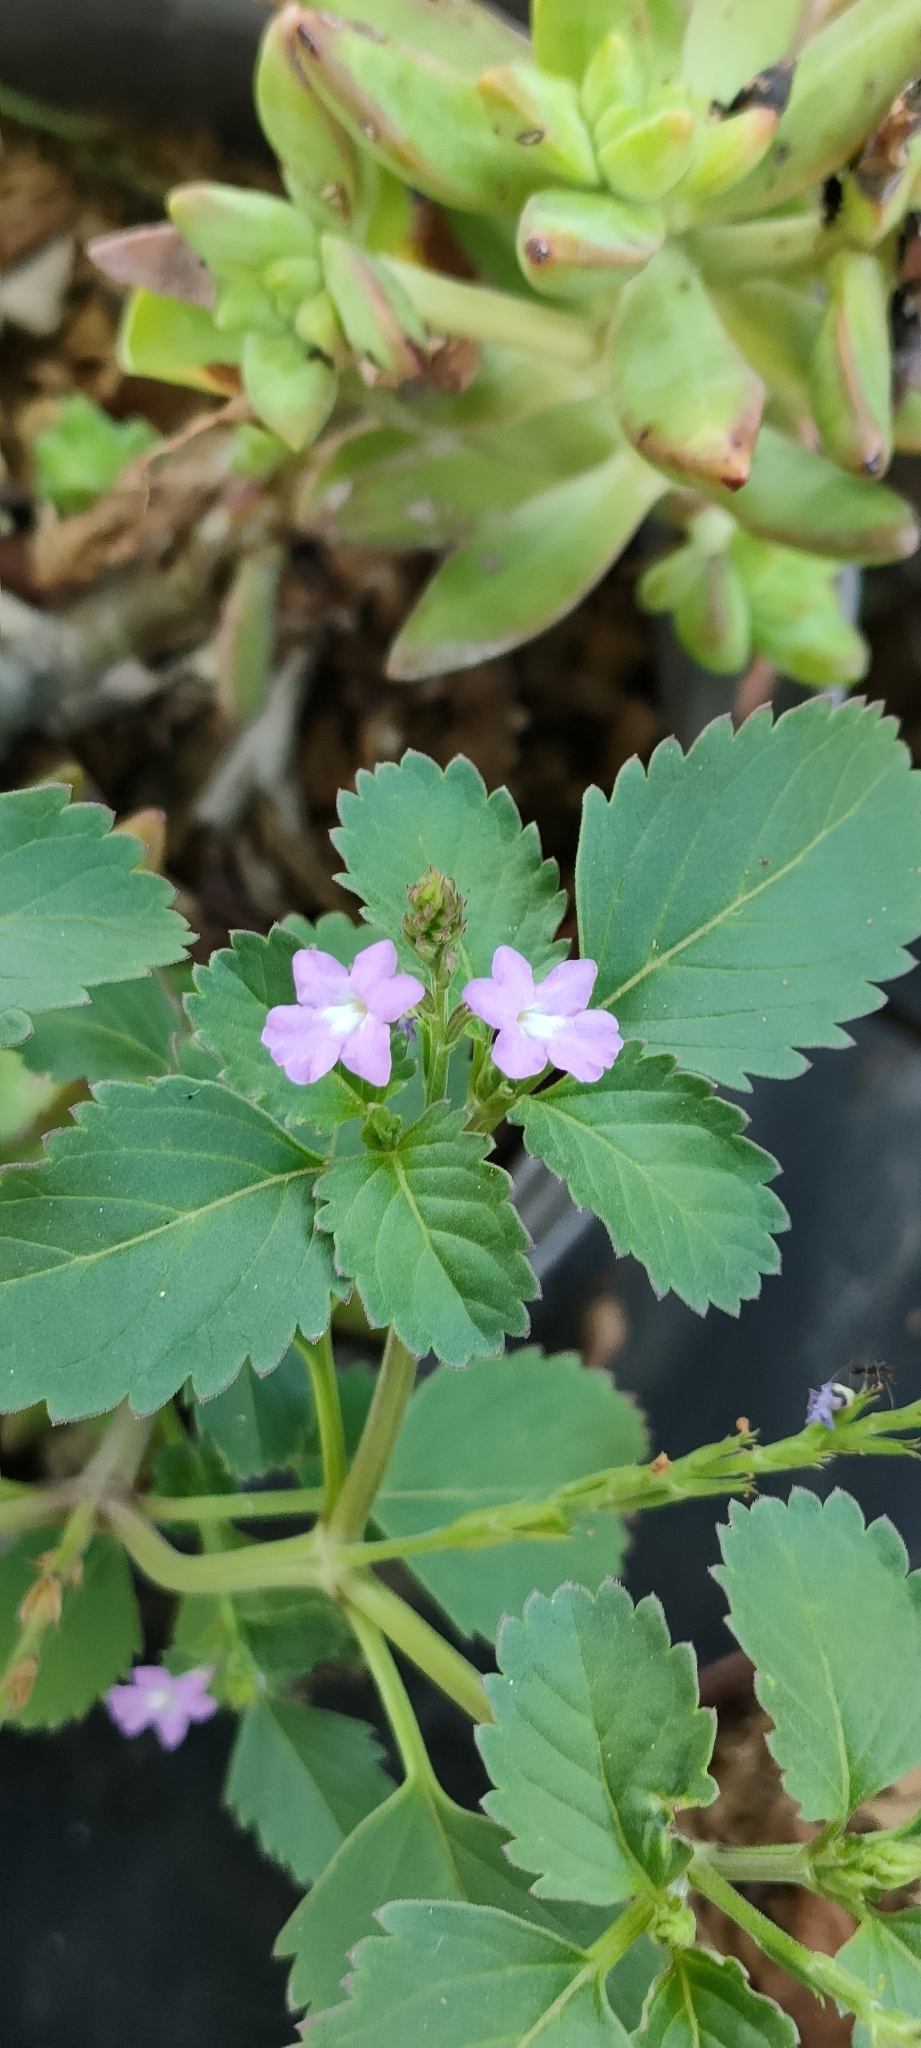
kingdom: Plantae
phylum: Tracheophyta
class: Magnoliopsida
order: Lamiales
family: Verbenaceae
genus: Bouchea
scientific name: Bouchea prismatica
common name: Vervine
